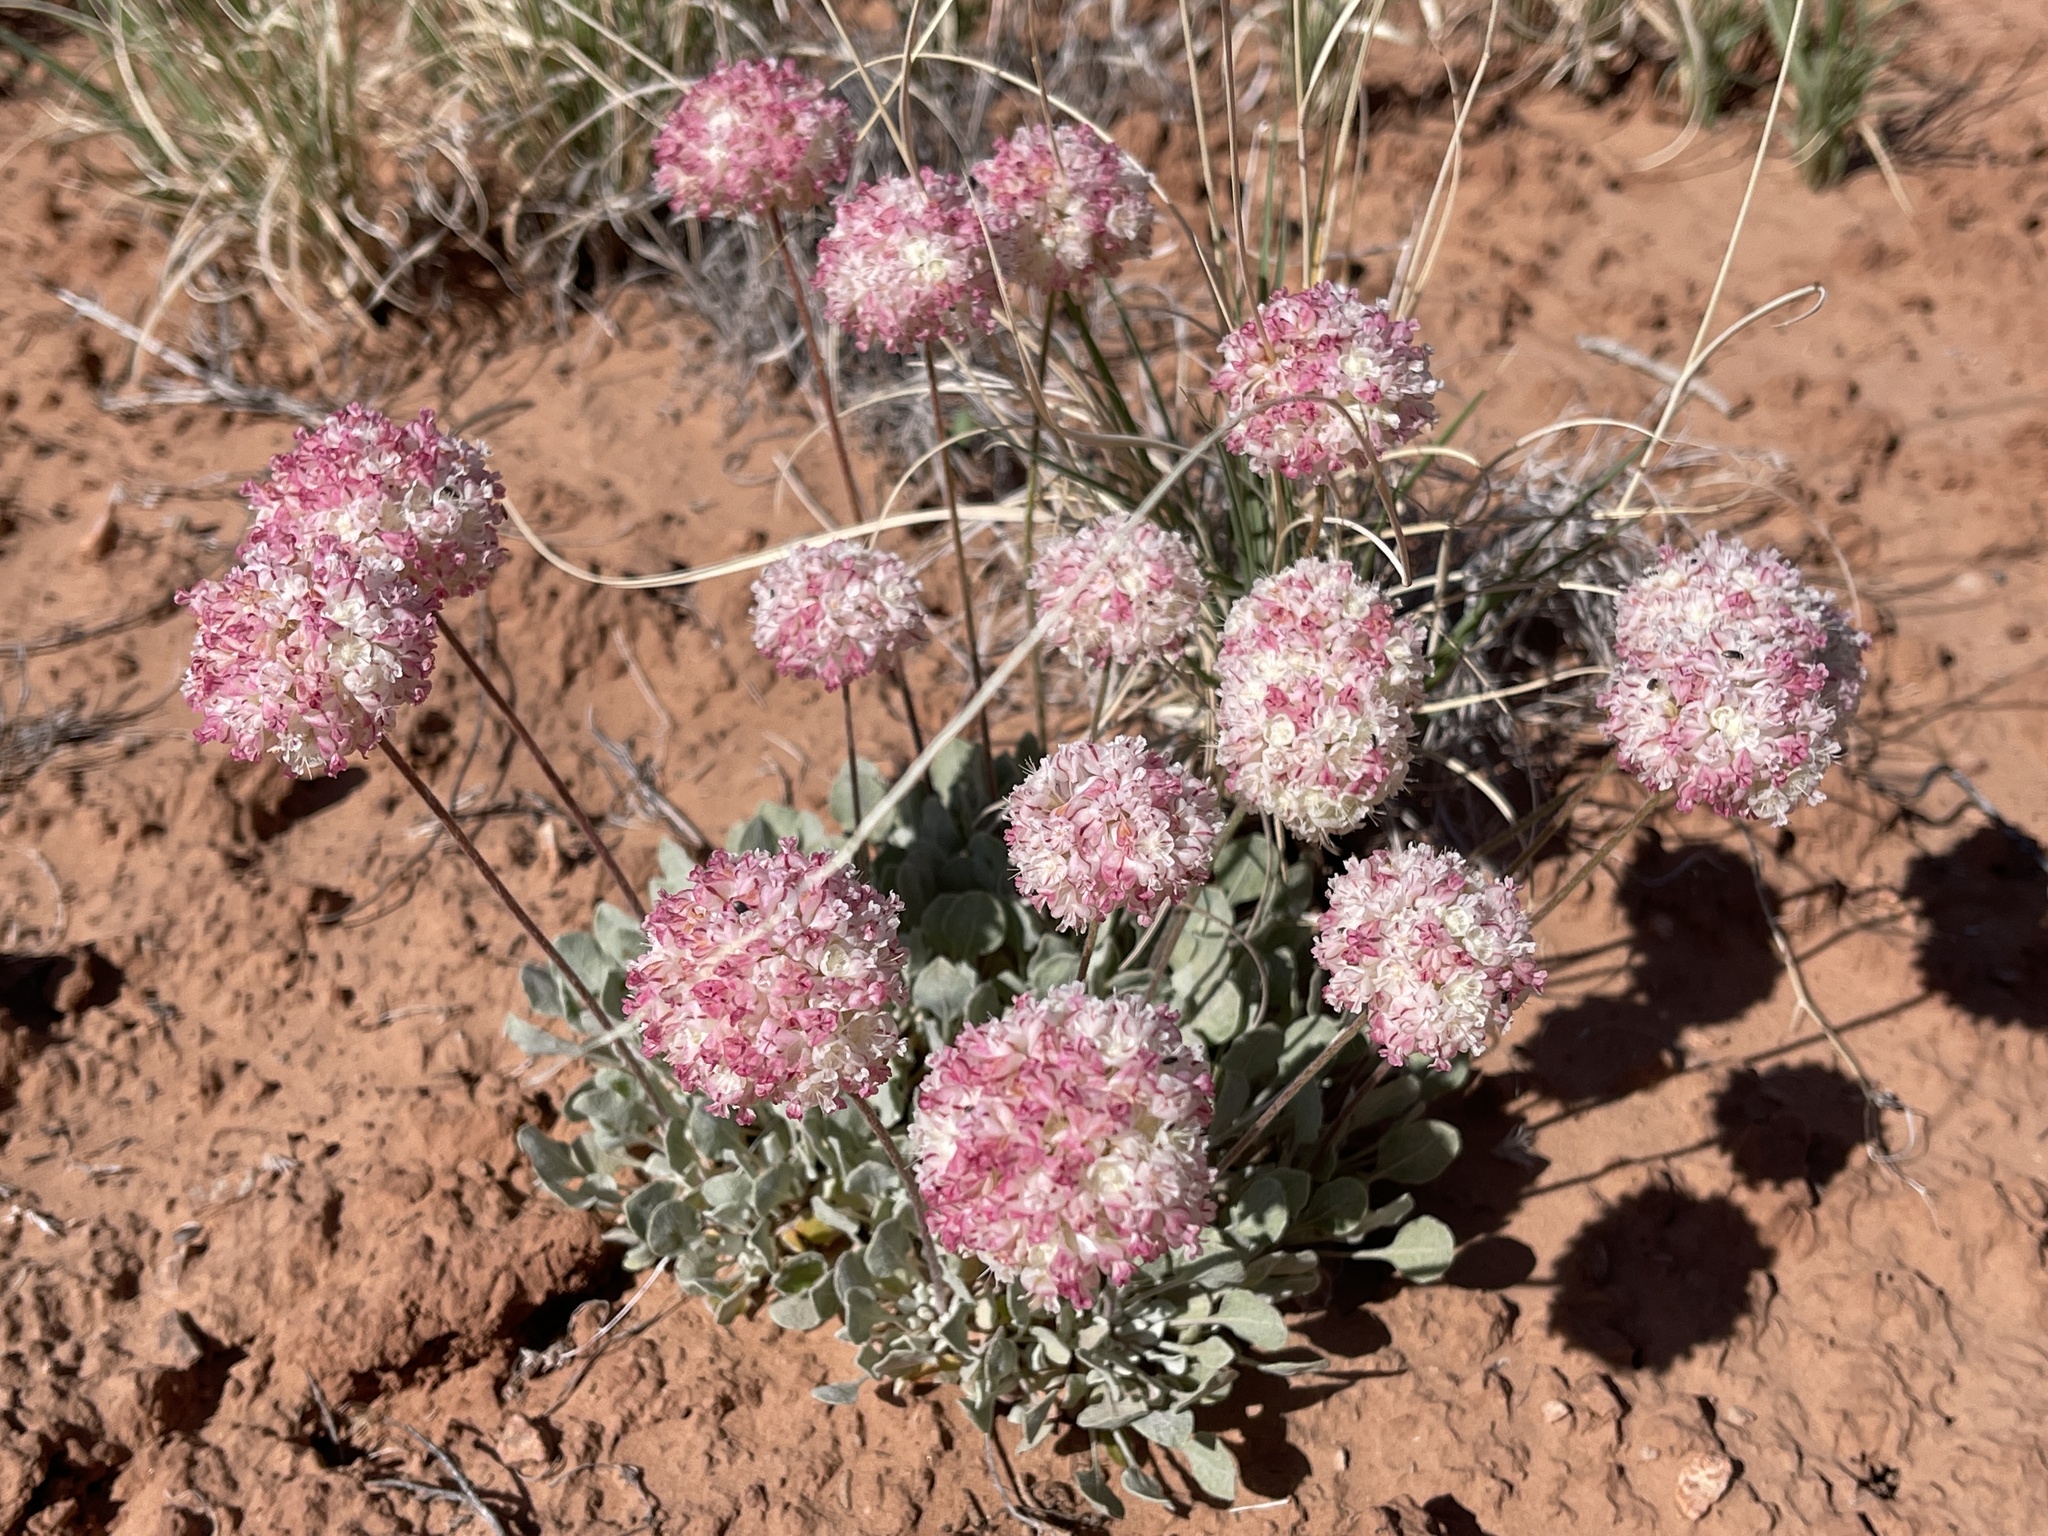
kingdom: Plantae
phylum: Tracheophyta
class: Magnoliopsida
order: Caryophyllales
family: Polygonaceae
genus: Eriogonum
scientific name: Eriogonum ovalifolium
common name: Cushion buckwheat
